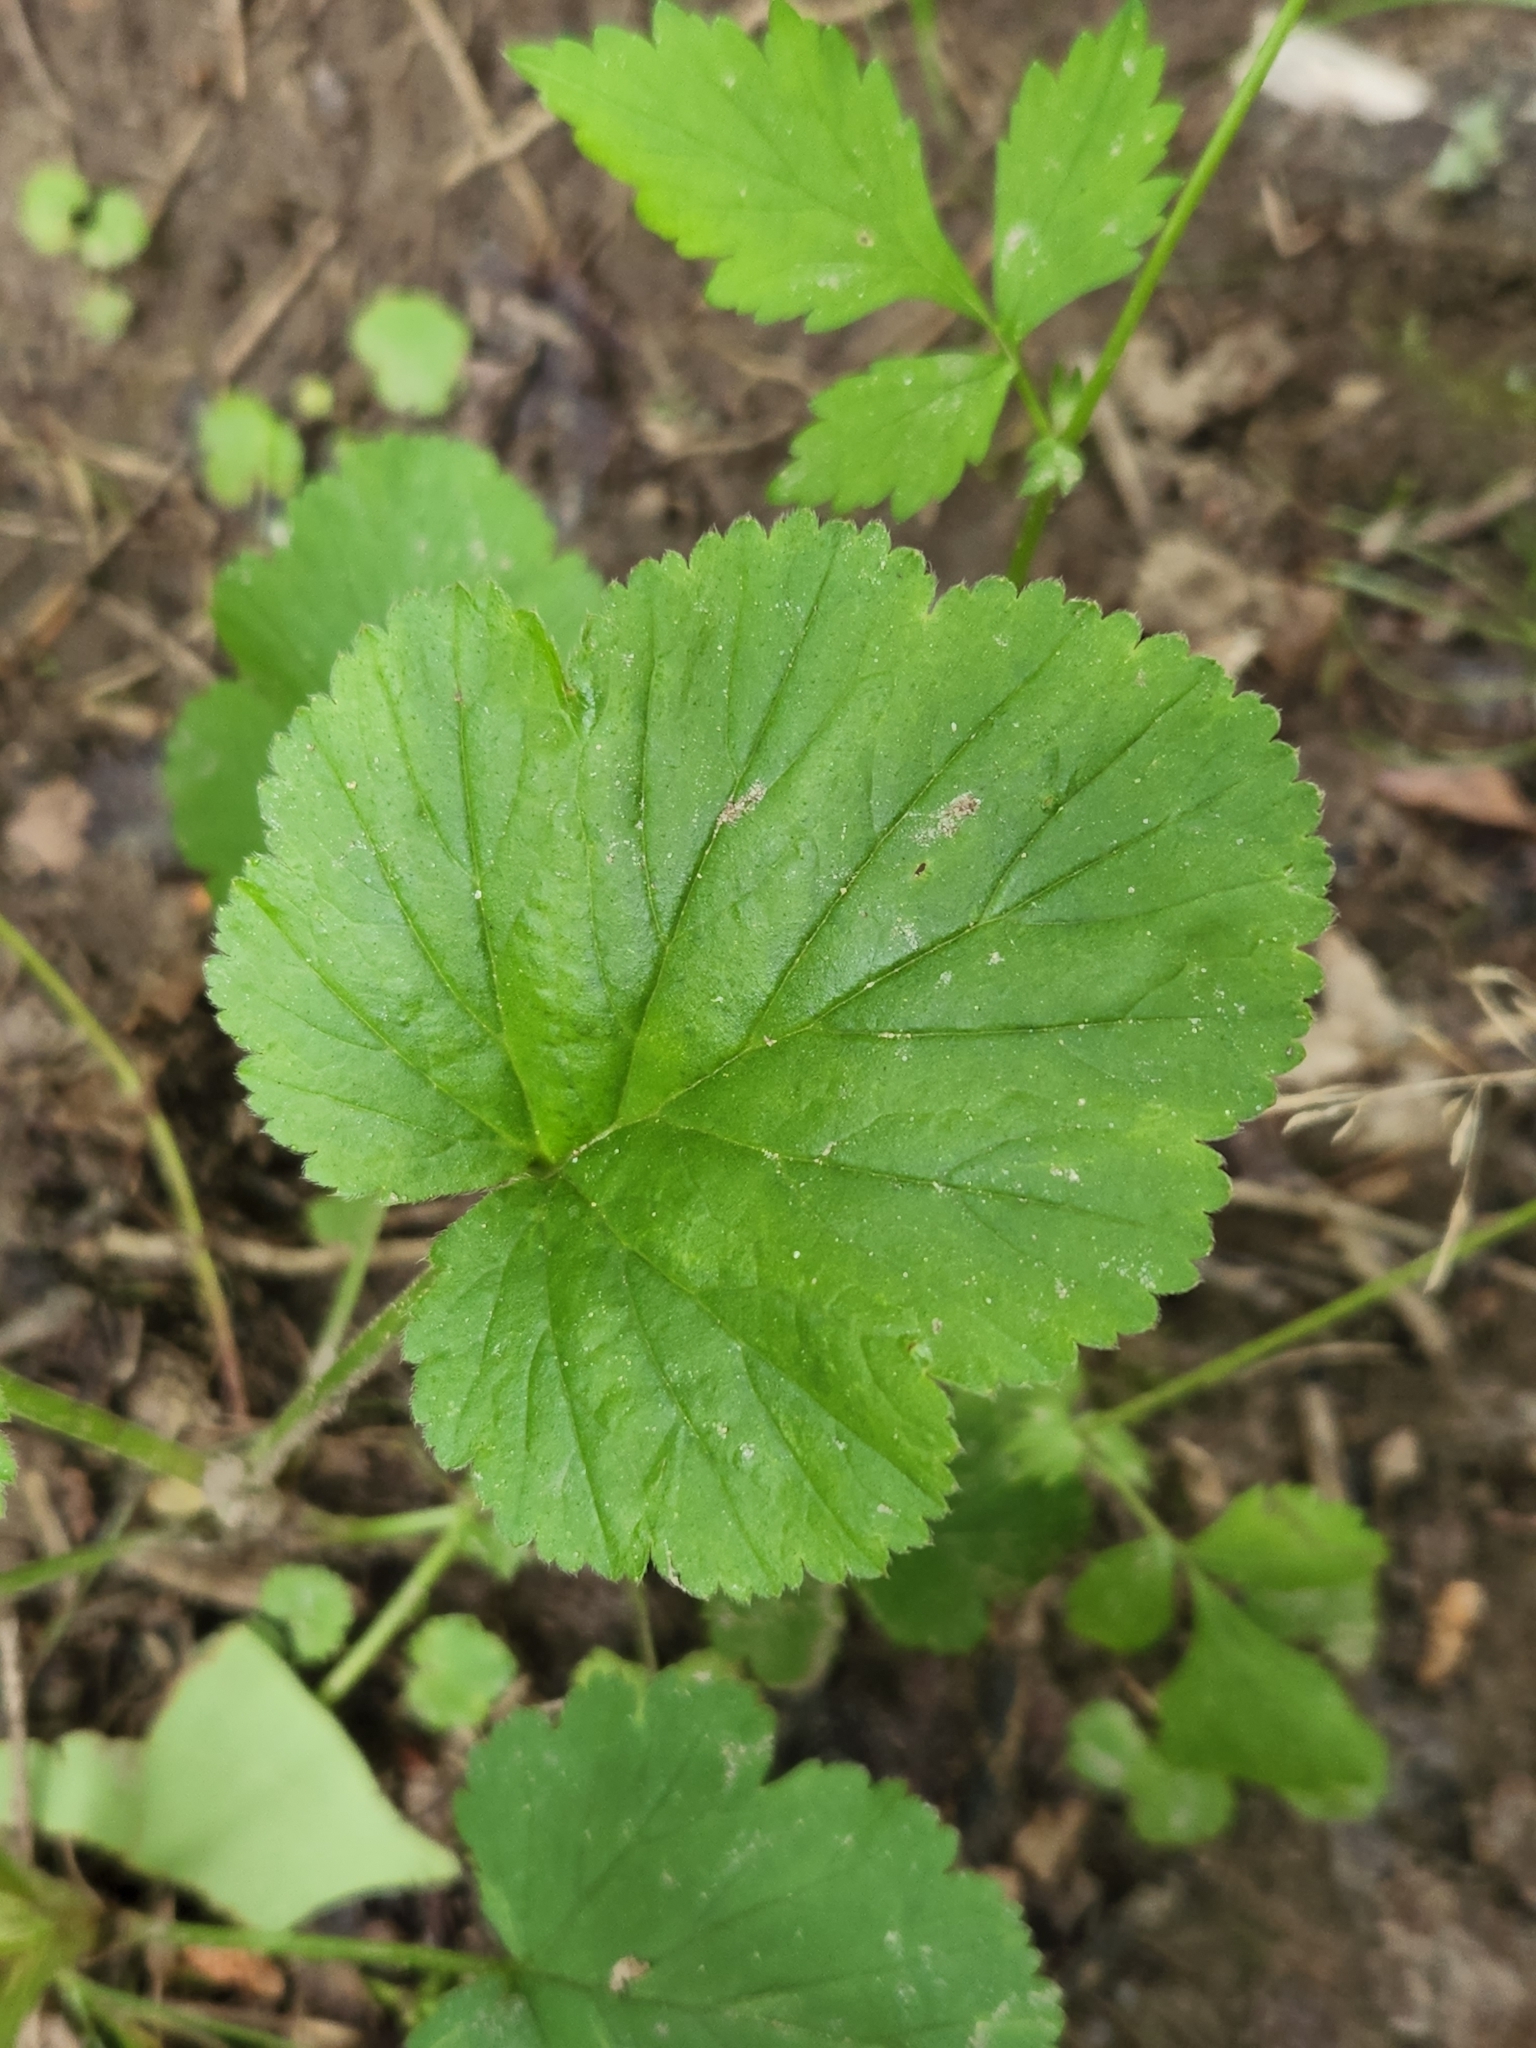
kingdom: Plantae
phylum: Tracheophyta
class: Magnoliopsida
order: Rosales
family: Rosaceae
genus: Geum
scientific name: Geum vernum
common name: Spring avens
